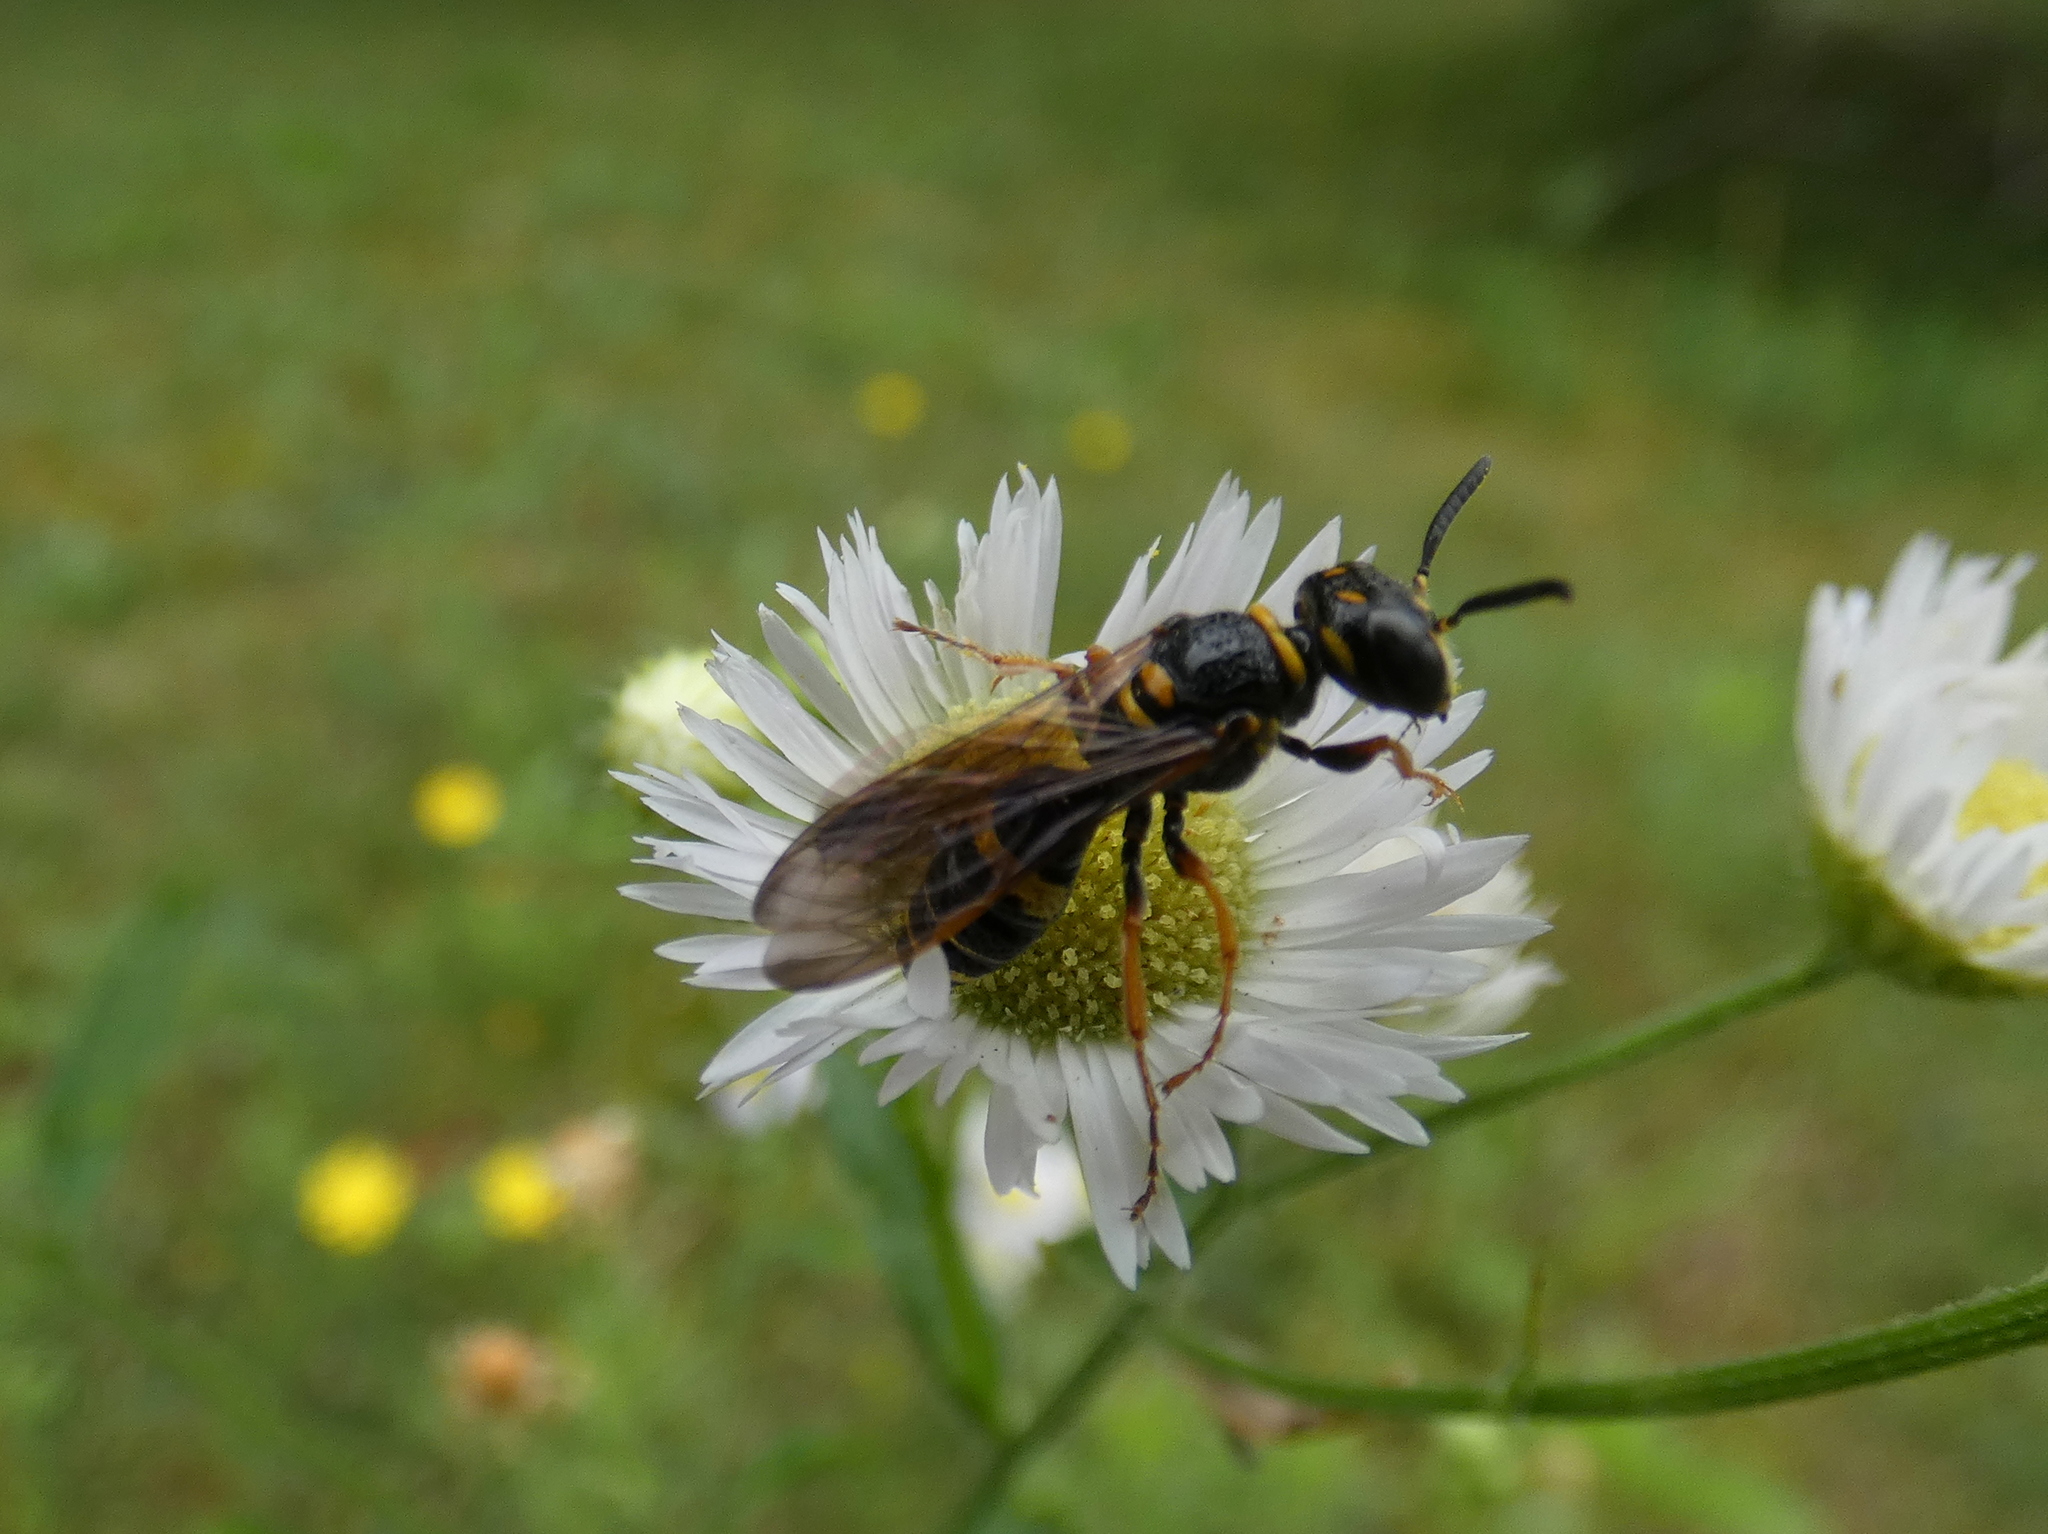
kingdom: Animalia
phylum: Arthropoda
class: Insecta
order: Hymenoptera
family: Crabronidae
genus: Philanthus
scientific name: Philanthus gibbosus
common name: Humped beewolf
